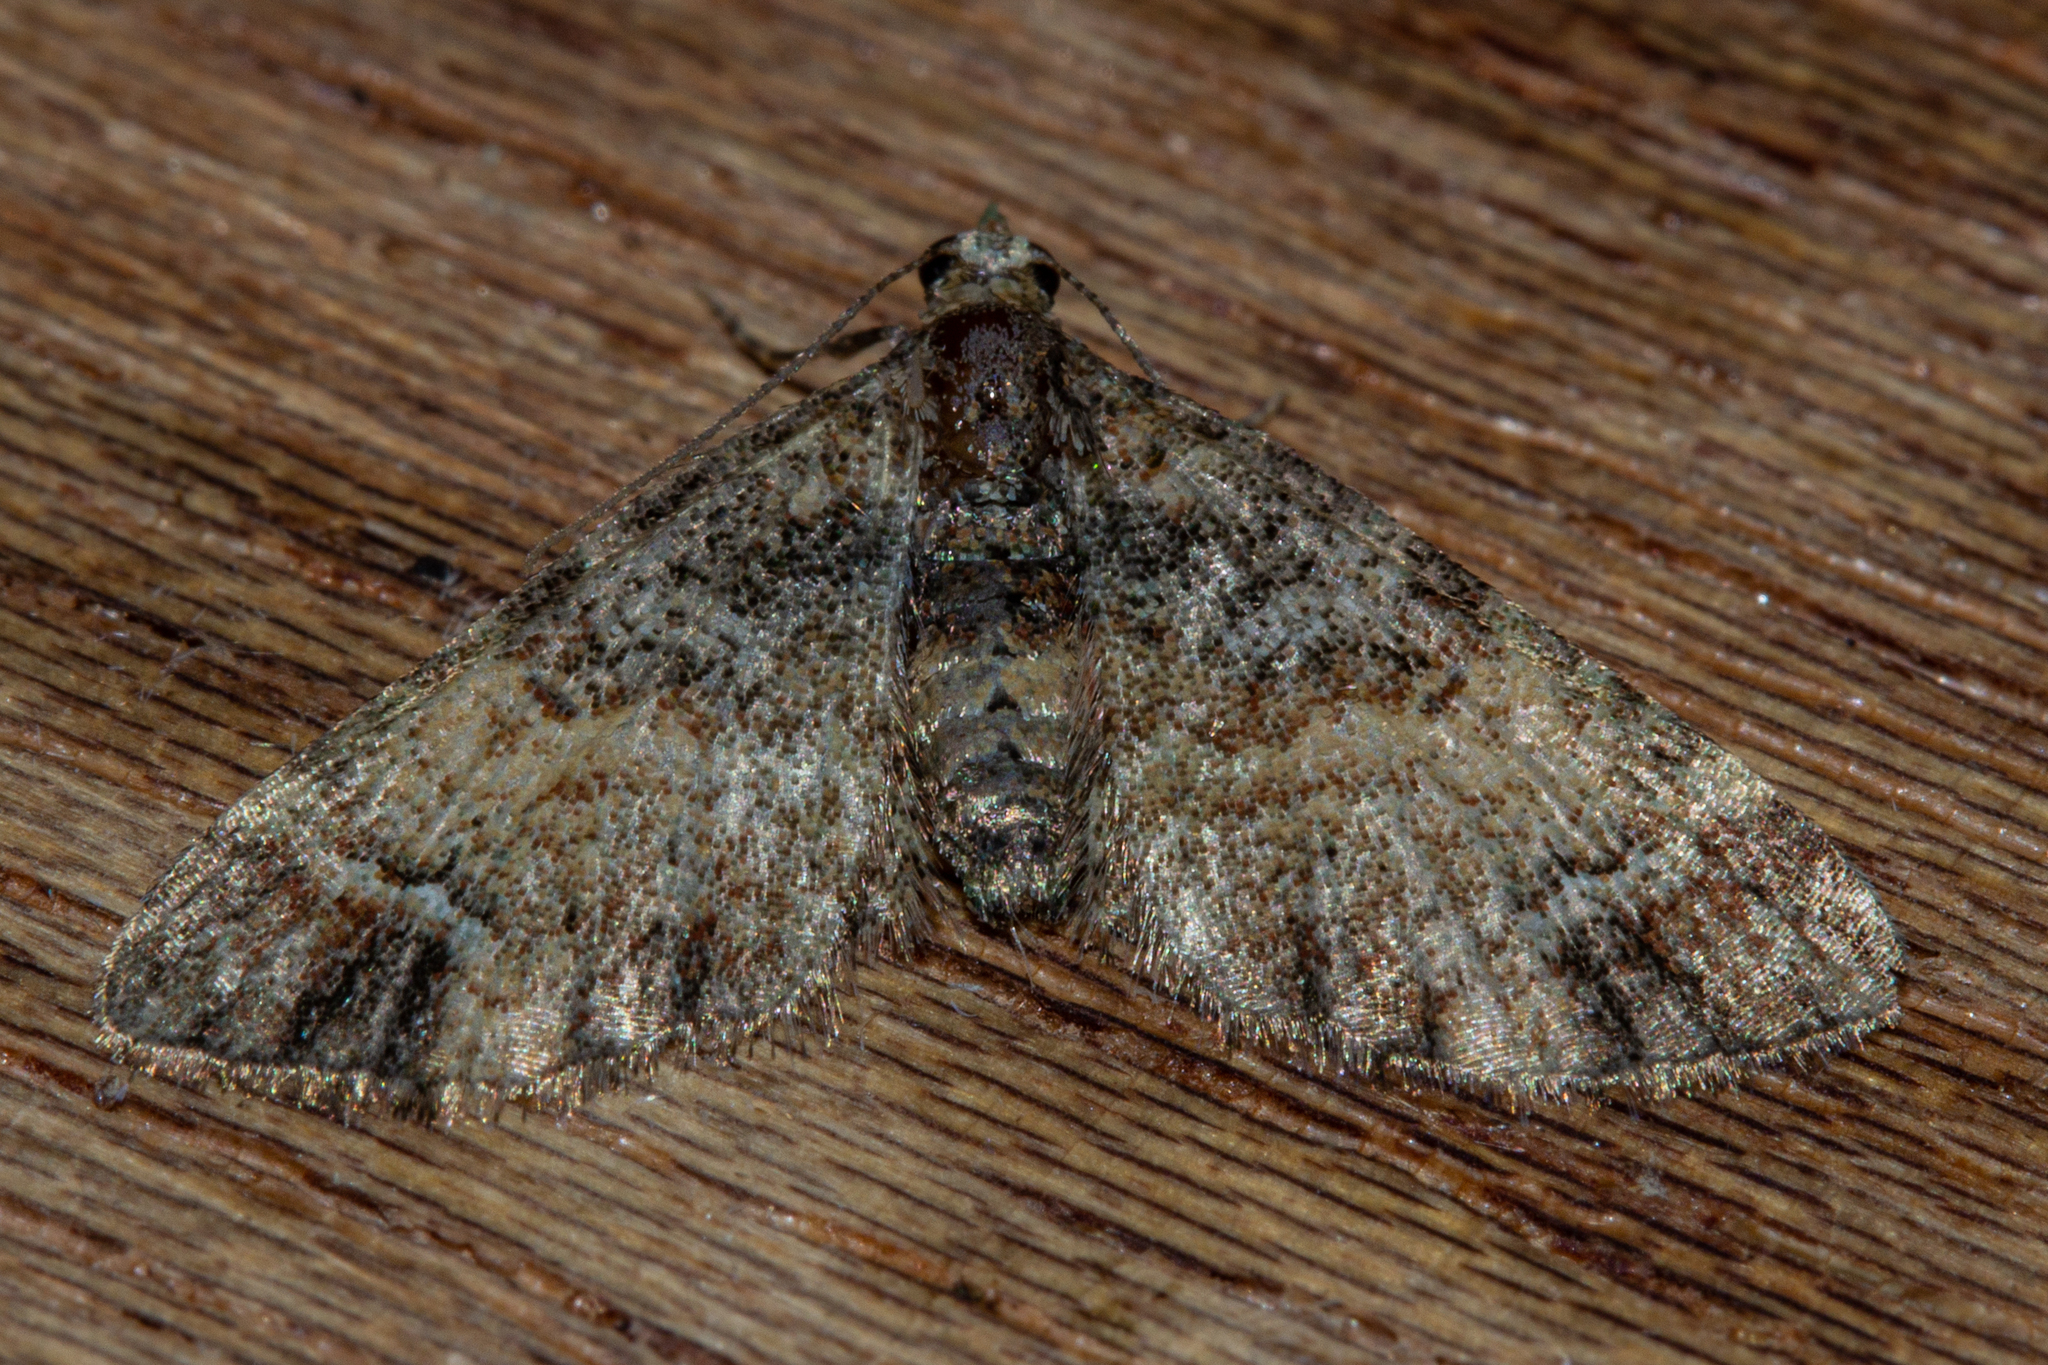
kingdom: Animalia
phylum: Arthropoda
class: Insecta
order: Lepidoptera
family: Geometridae
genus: Pasiphila
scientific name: Pasiphila sandycias
